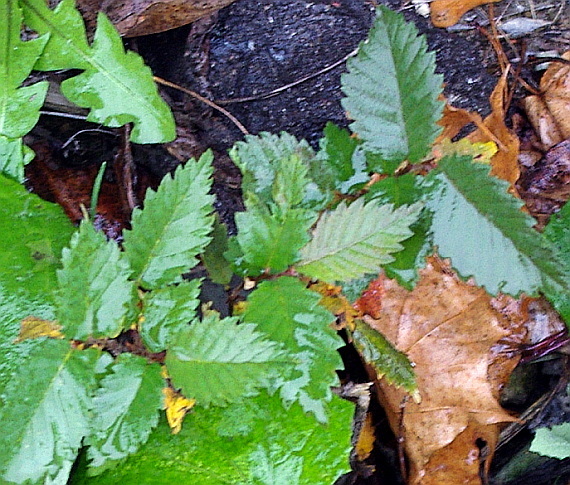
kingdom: Plantae
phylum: Tracheophyta
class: Magnoliopsida
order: Rosales
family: Ulmaceae
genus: Ulmus
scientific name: Ulmus pumila
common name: Siberian elm
